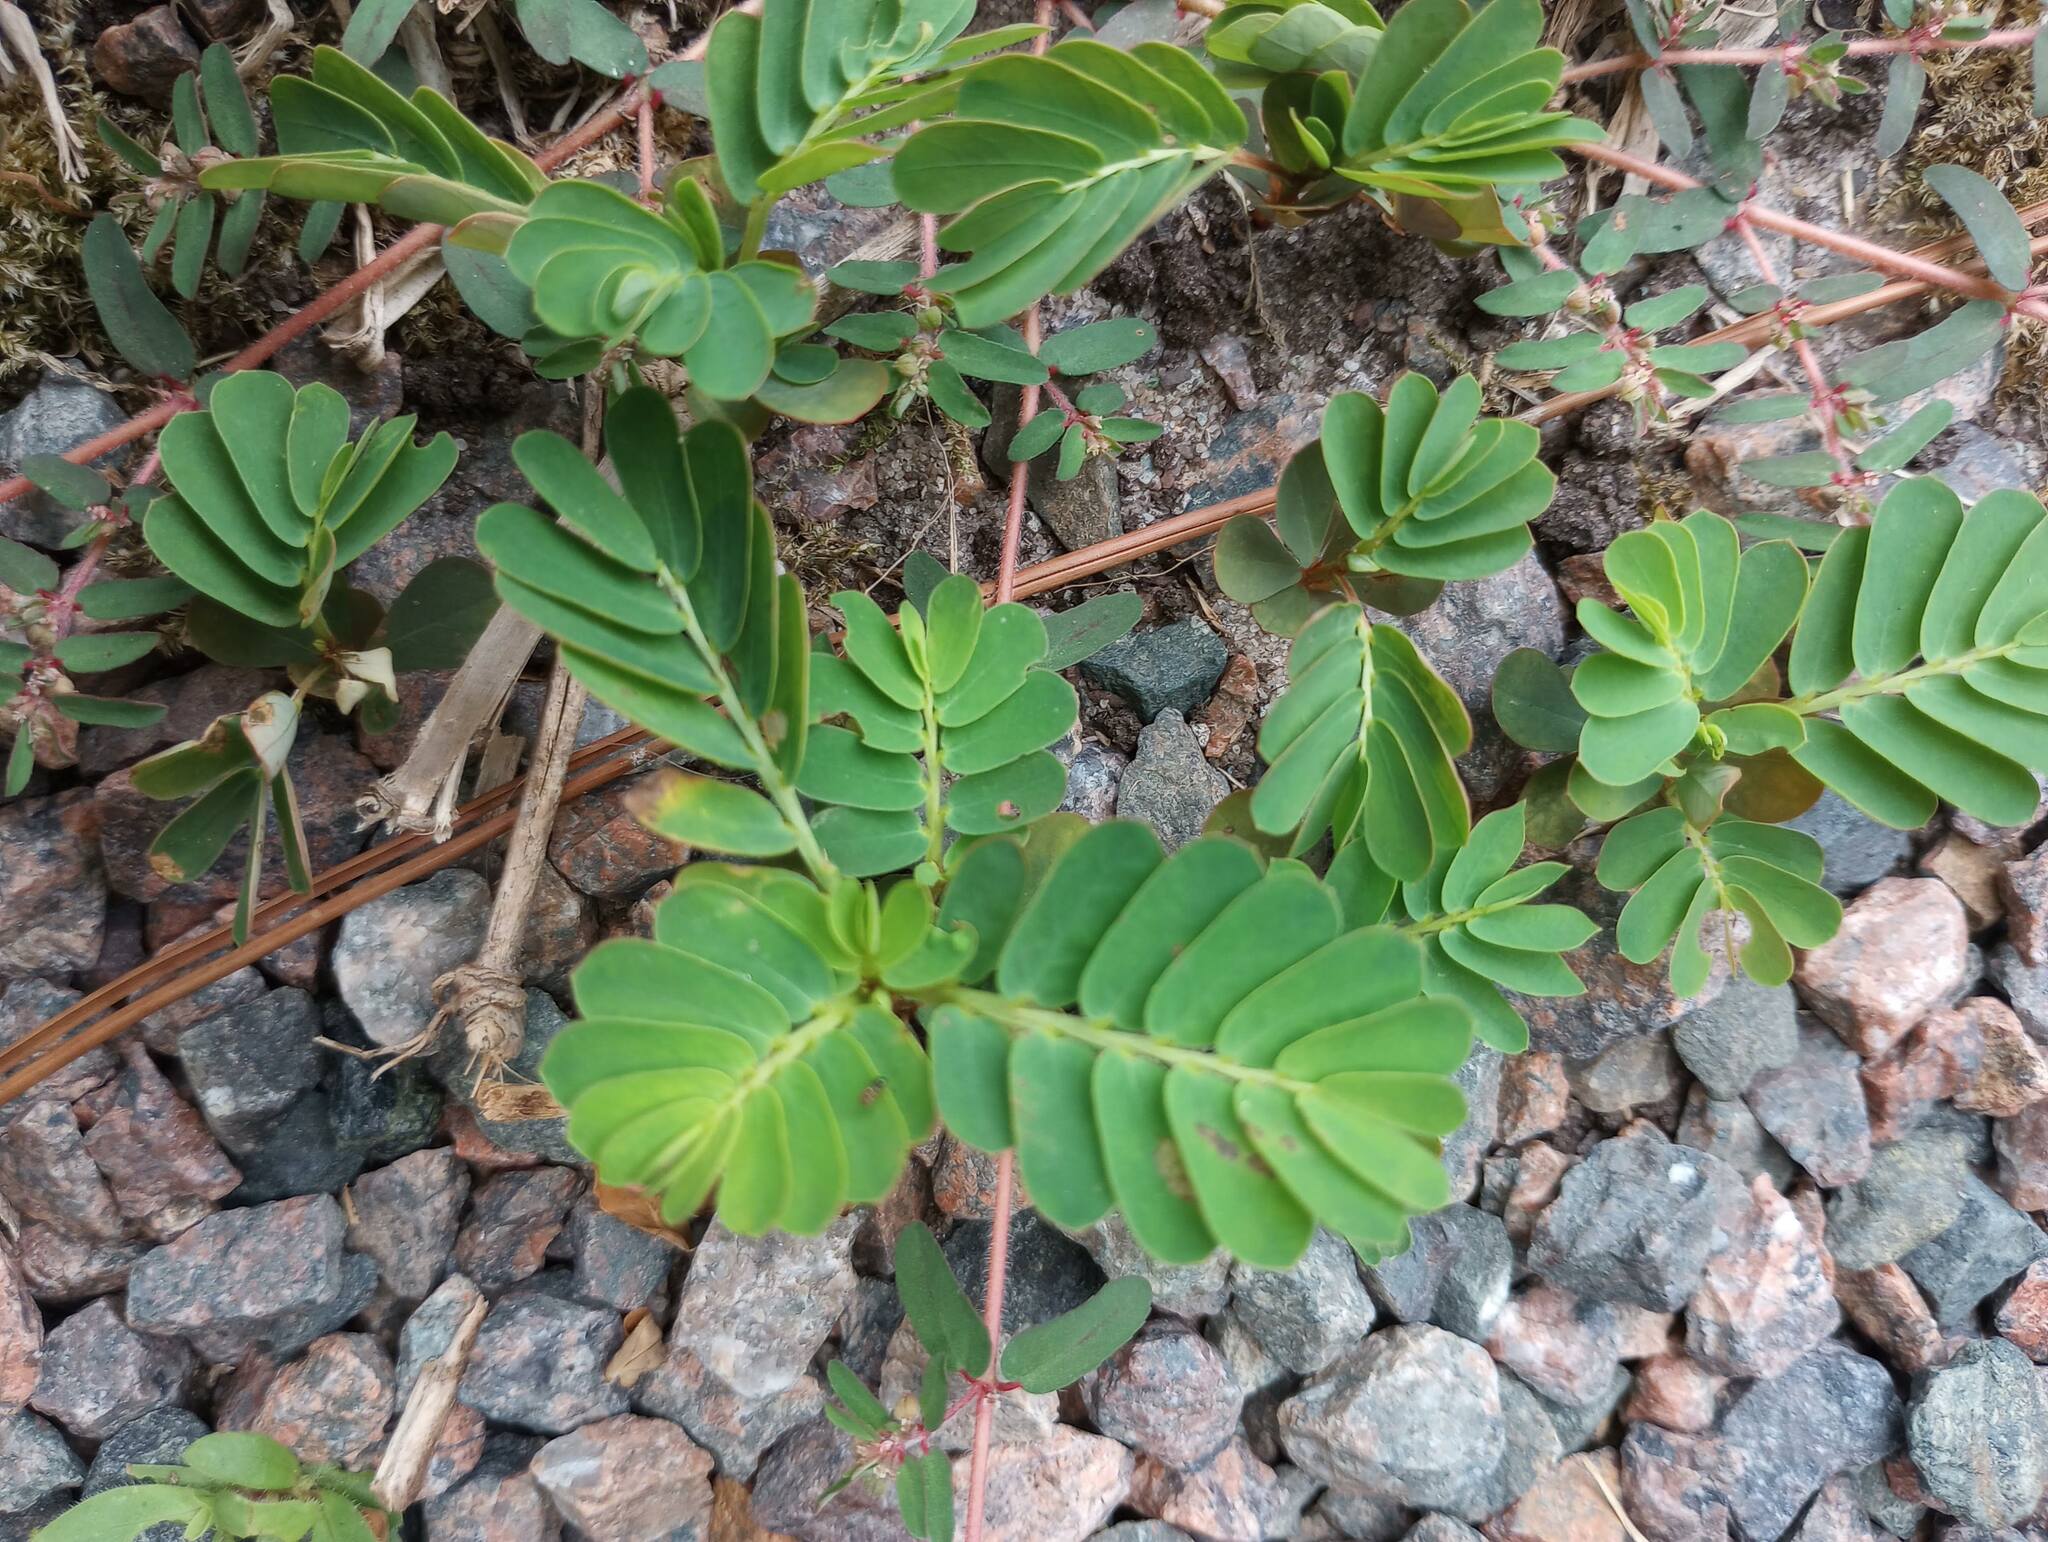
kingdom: Plantae
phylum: Tracheophyta
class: Magnoliopsida
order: Malpighiales
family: Phyllanthaceae
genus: Phyllanthus
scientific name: Phyllanthus urinaria
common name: Chamber bitter
